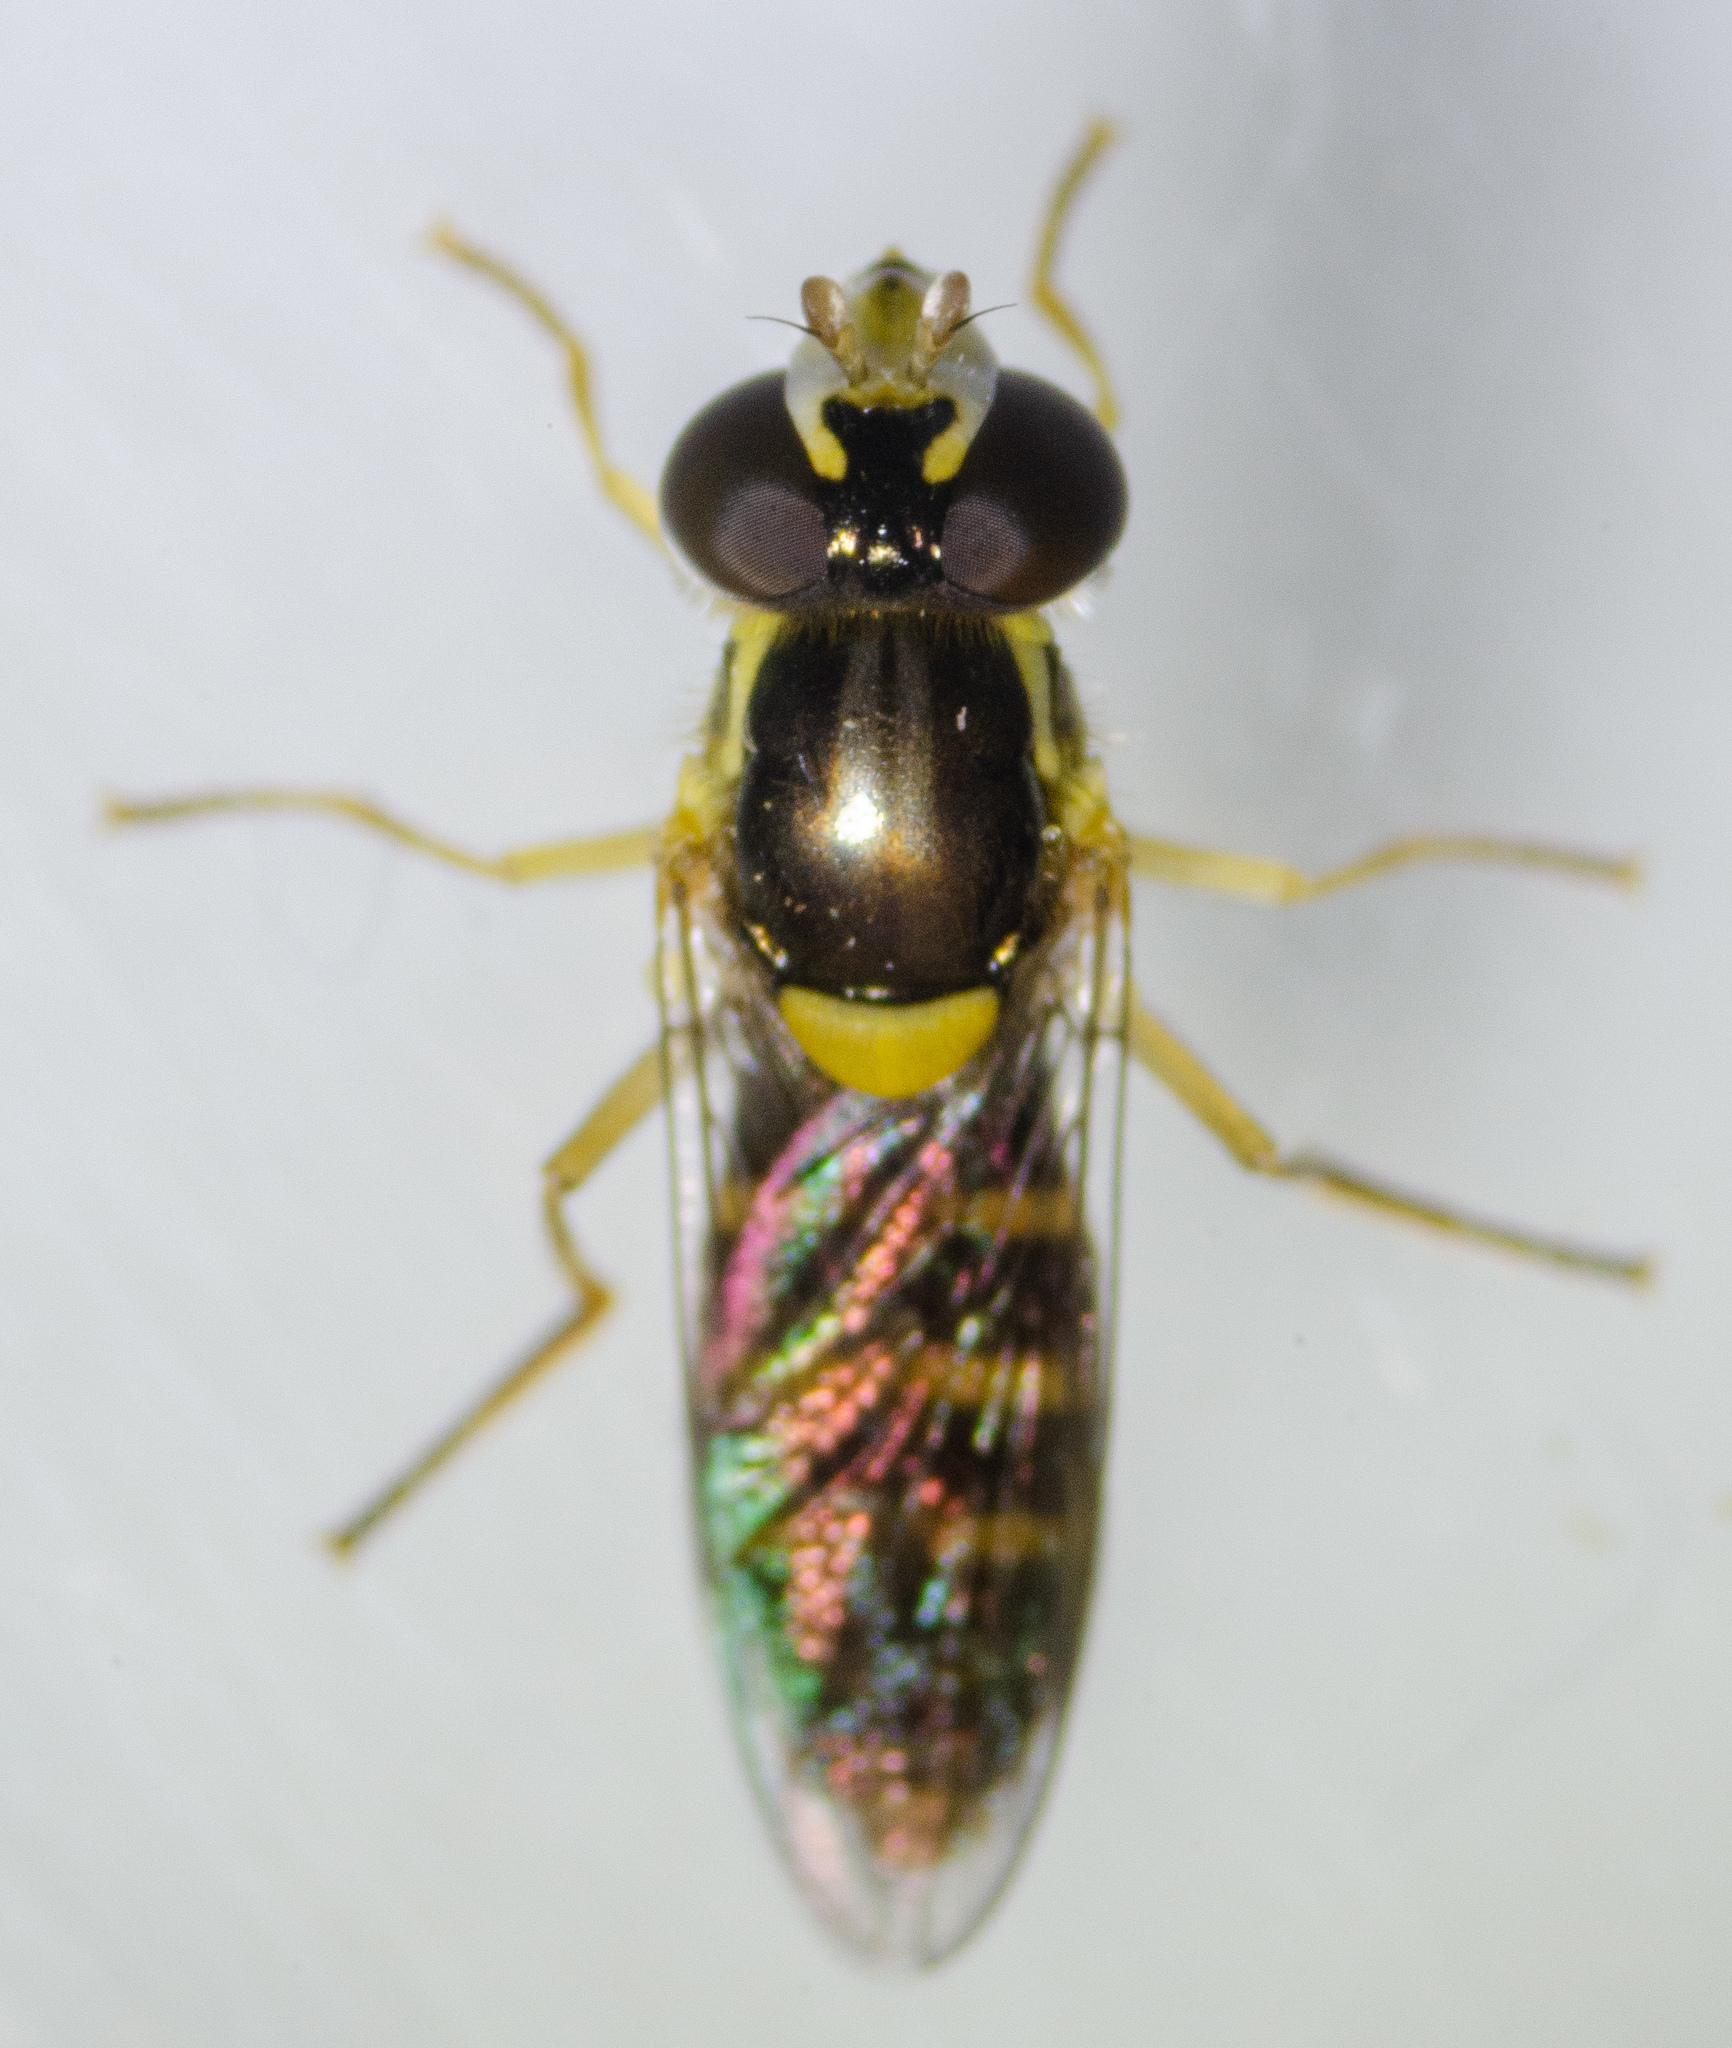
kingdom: Animalia
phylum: Arthropoda
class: Insecta
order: Diptera
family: Syrphidae
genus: Sphaerophoria
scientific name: Sphaerophoria sulphuripes
